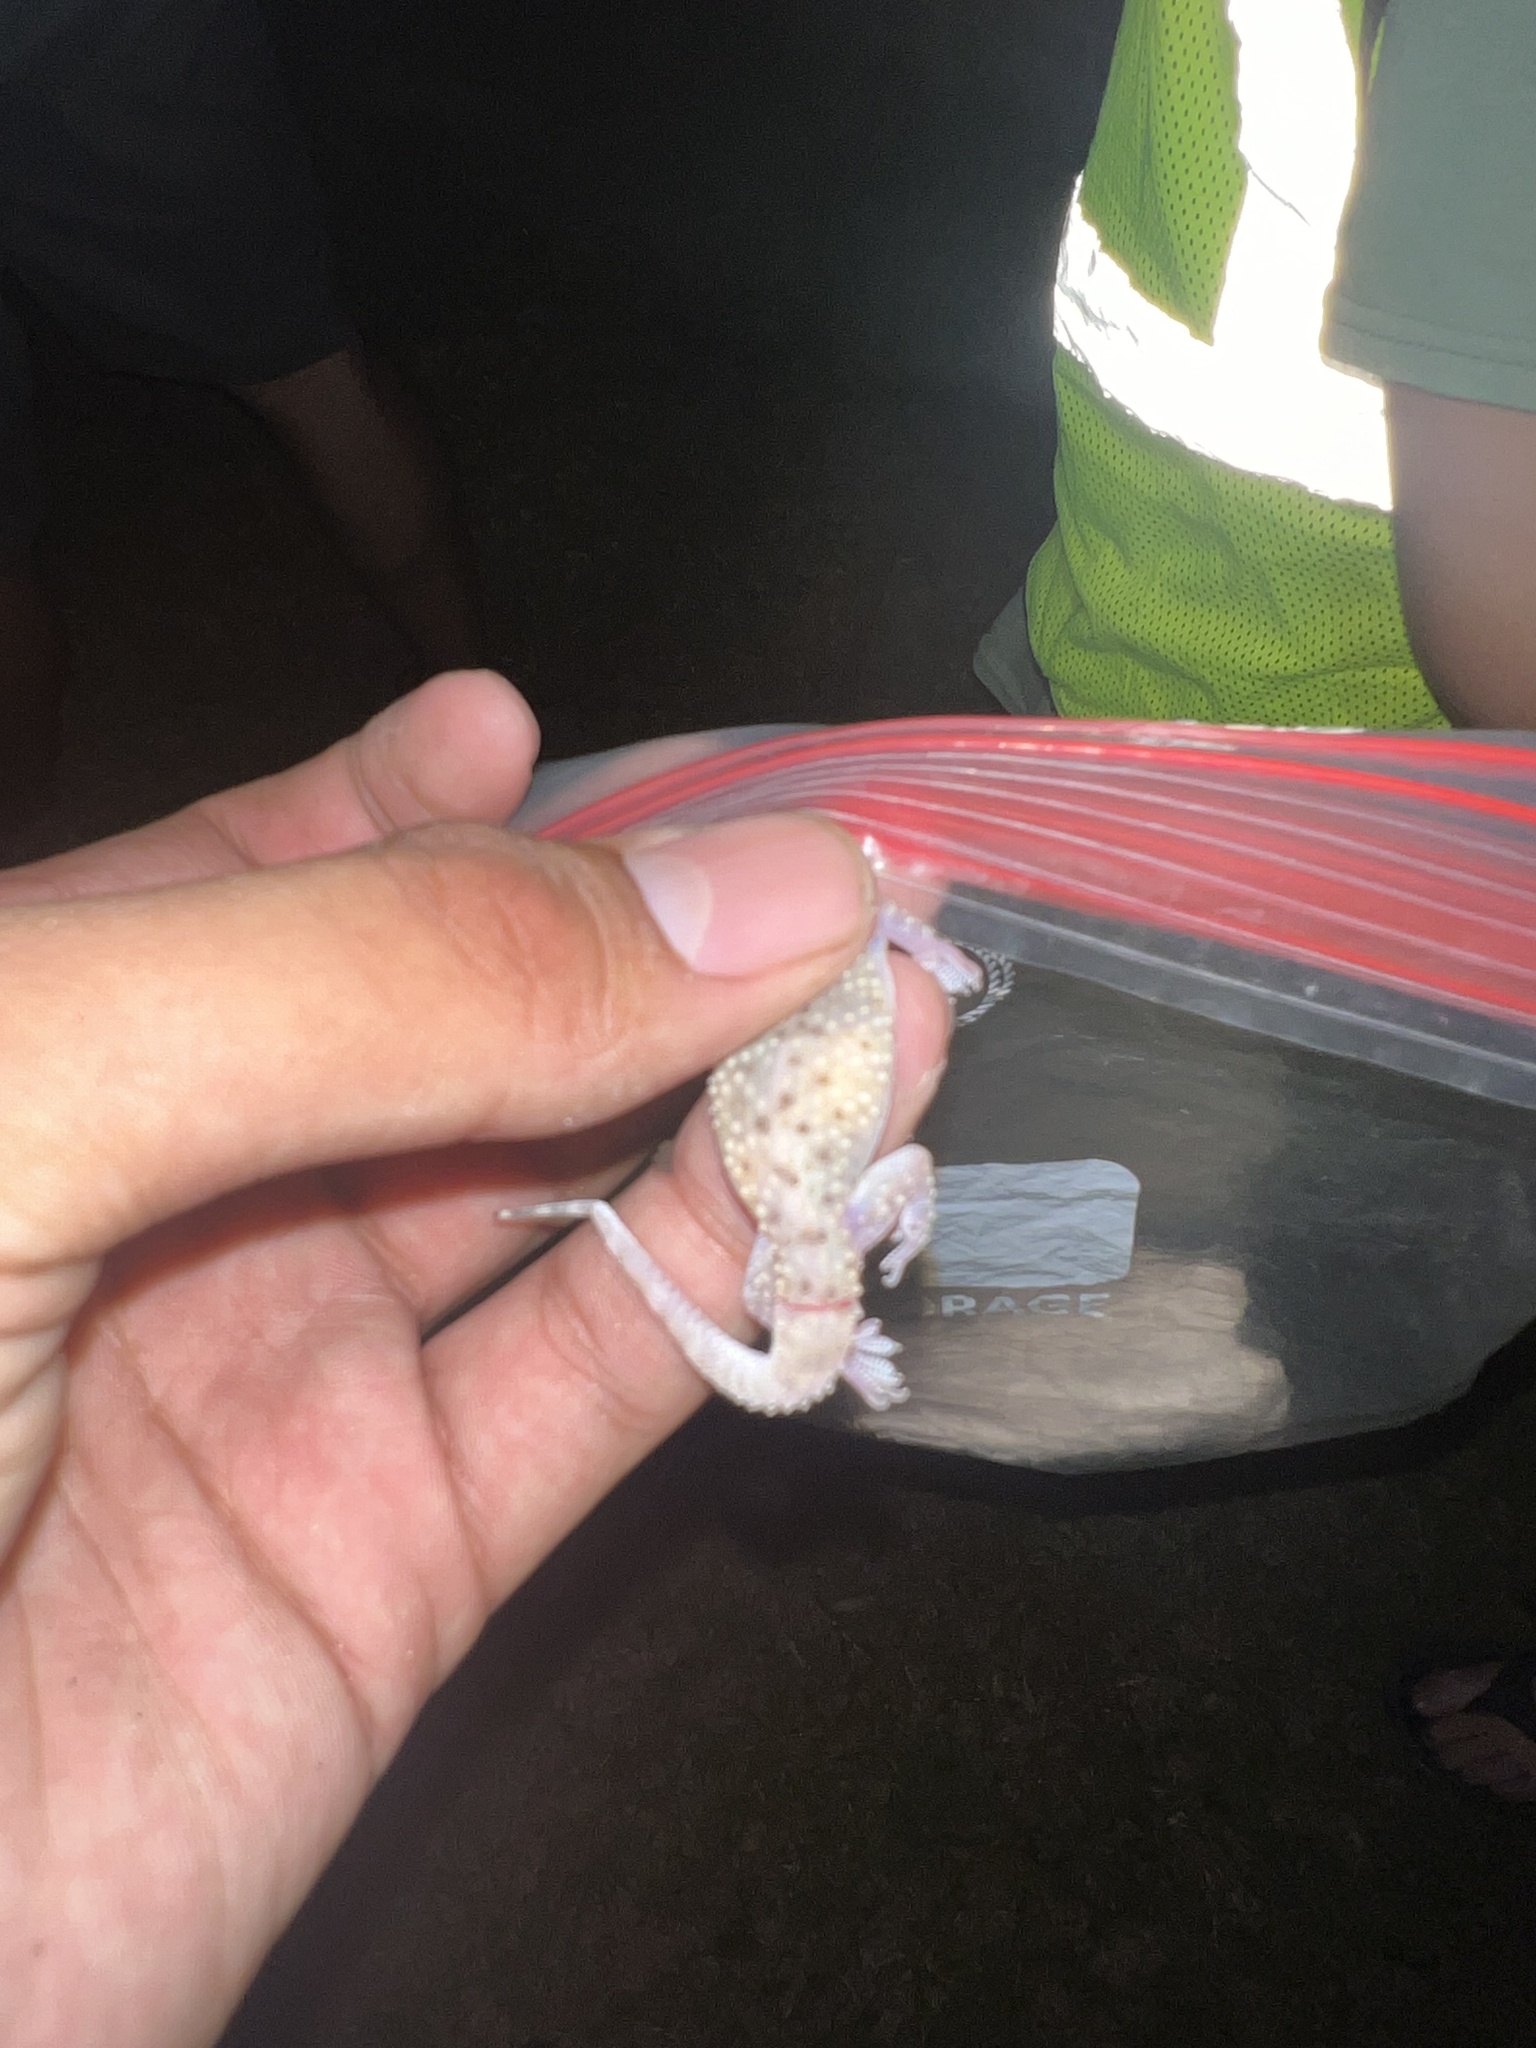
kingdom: Animalia
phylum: Chordata
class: Squamata
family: Gekkonidae
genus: Hemidactylus
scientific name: Hemidactylus turcicus
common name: Turkish gecko
